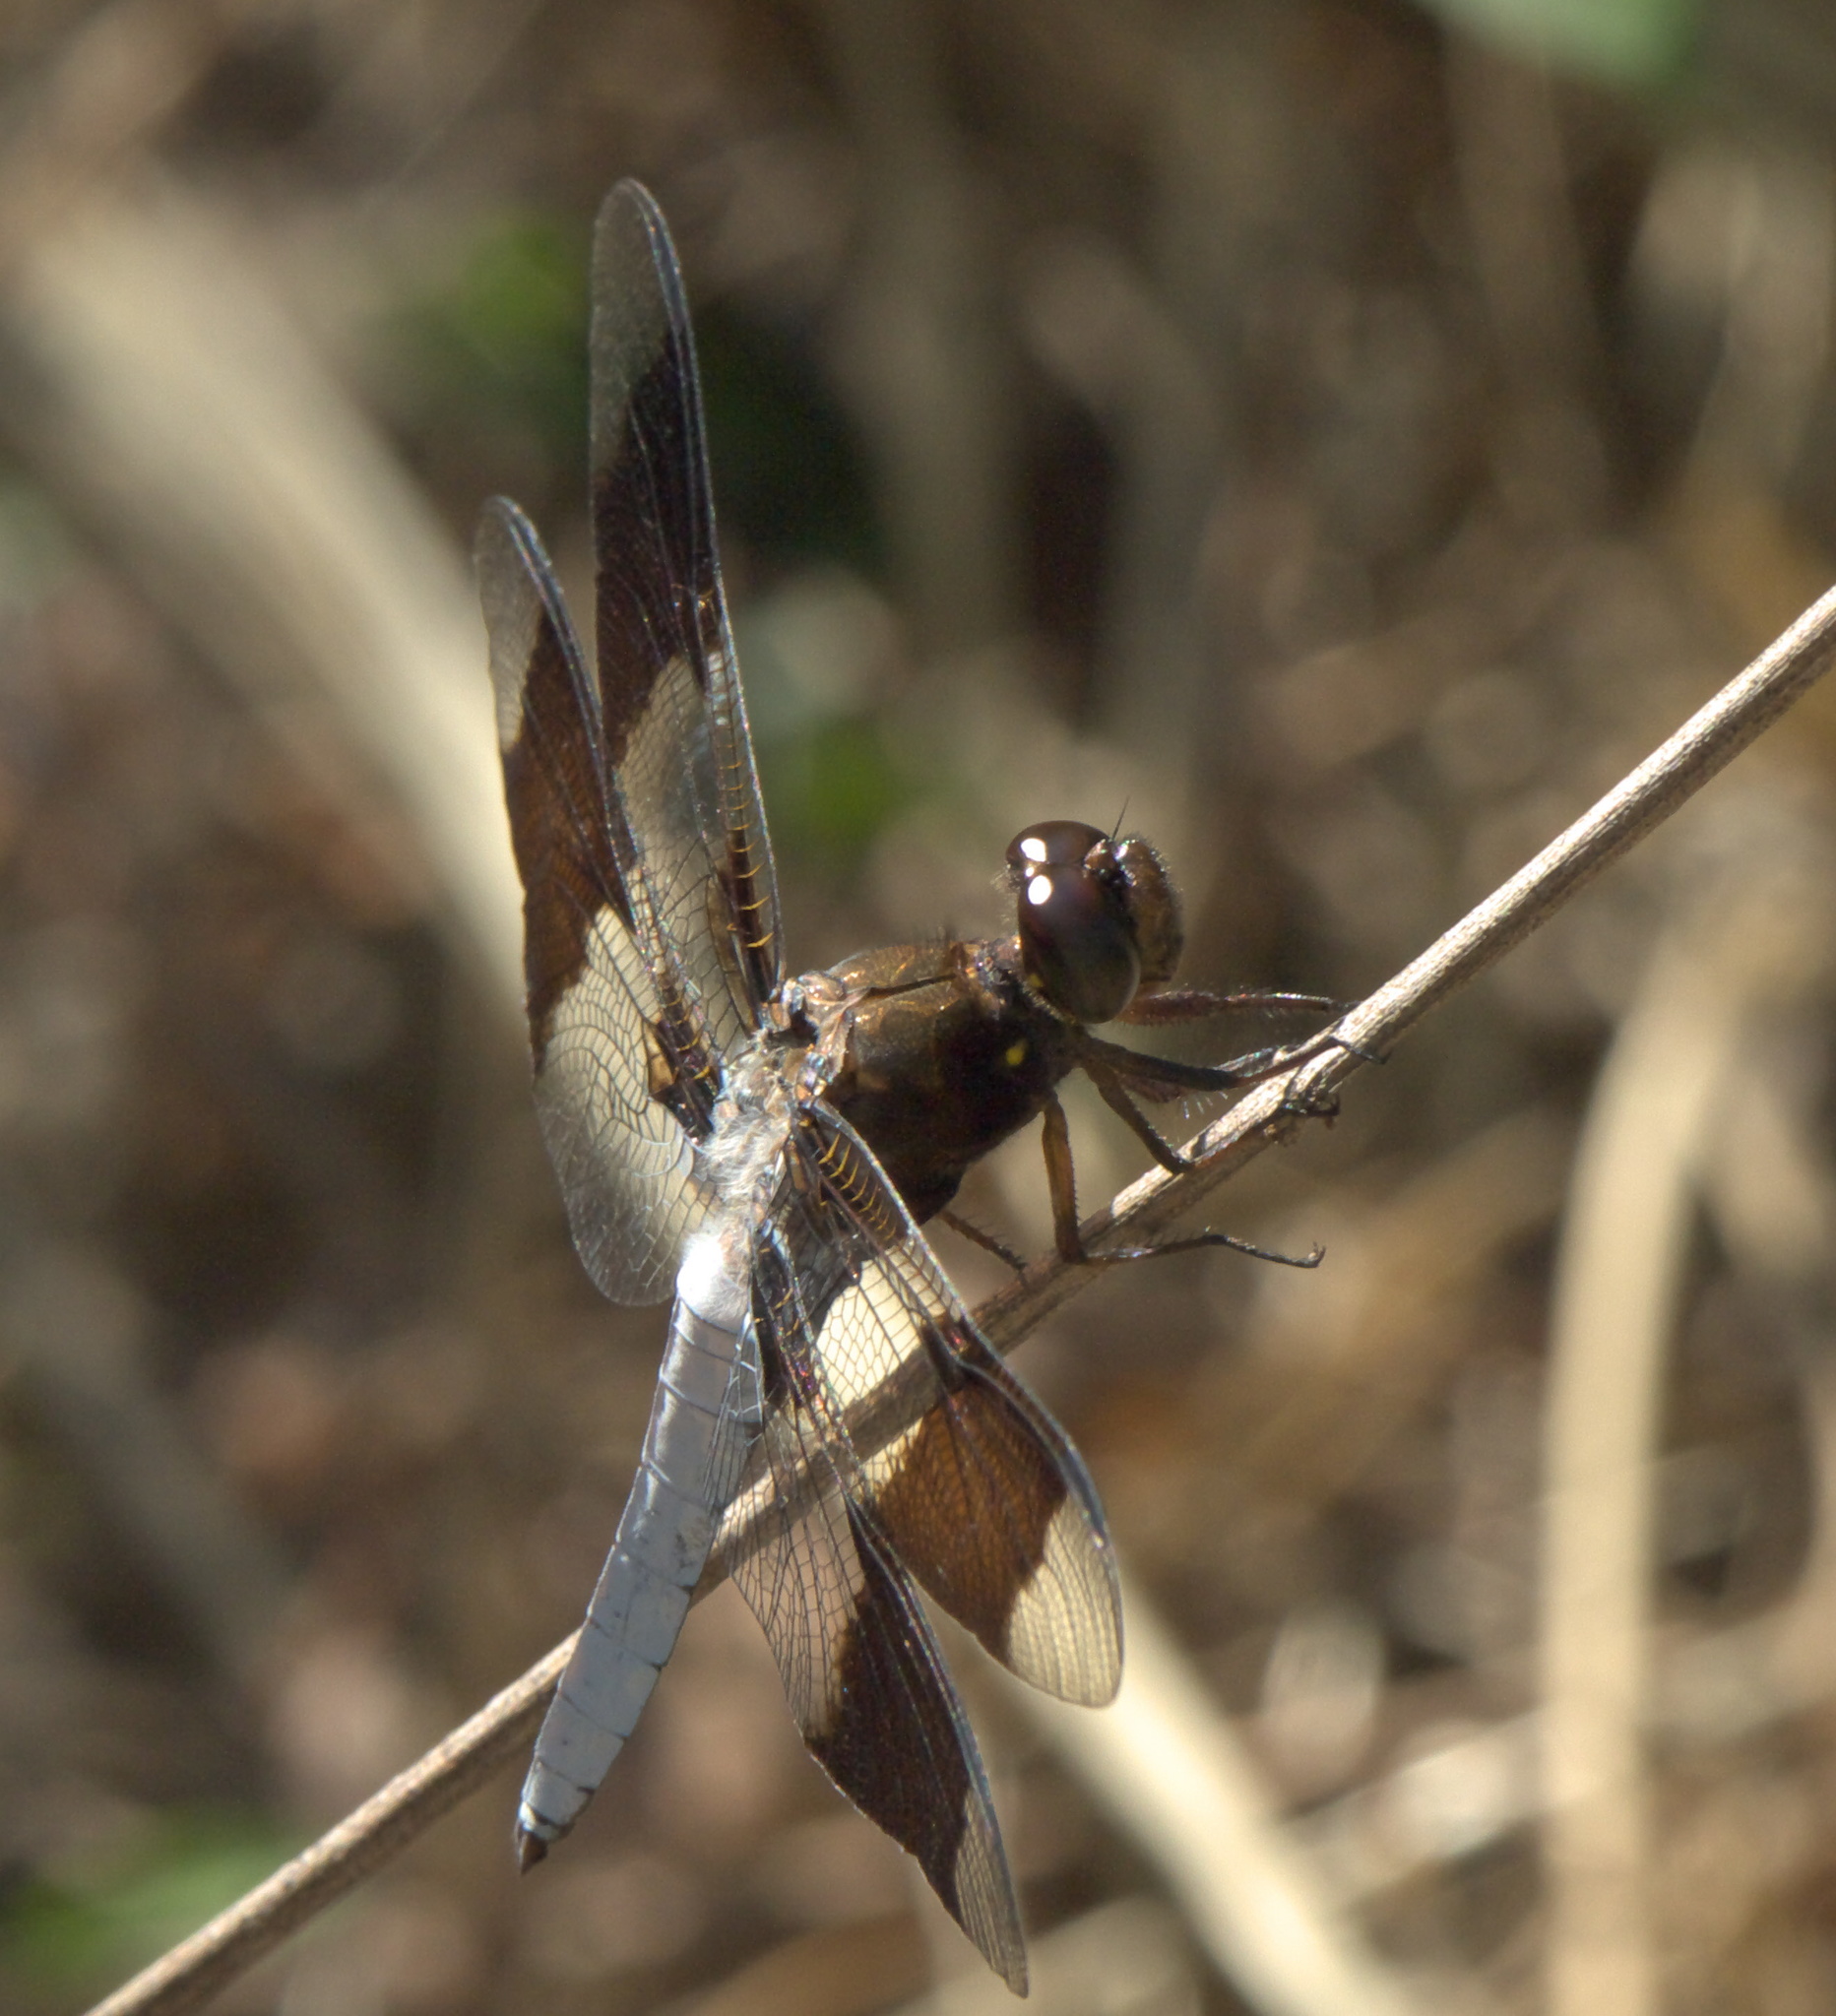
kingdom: Animalia
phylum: Arthropoda
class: Insecta
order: Odonata
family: Libellulidae
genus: Plathemis
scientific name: Plathemis lydia
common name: Common whitetail
